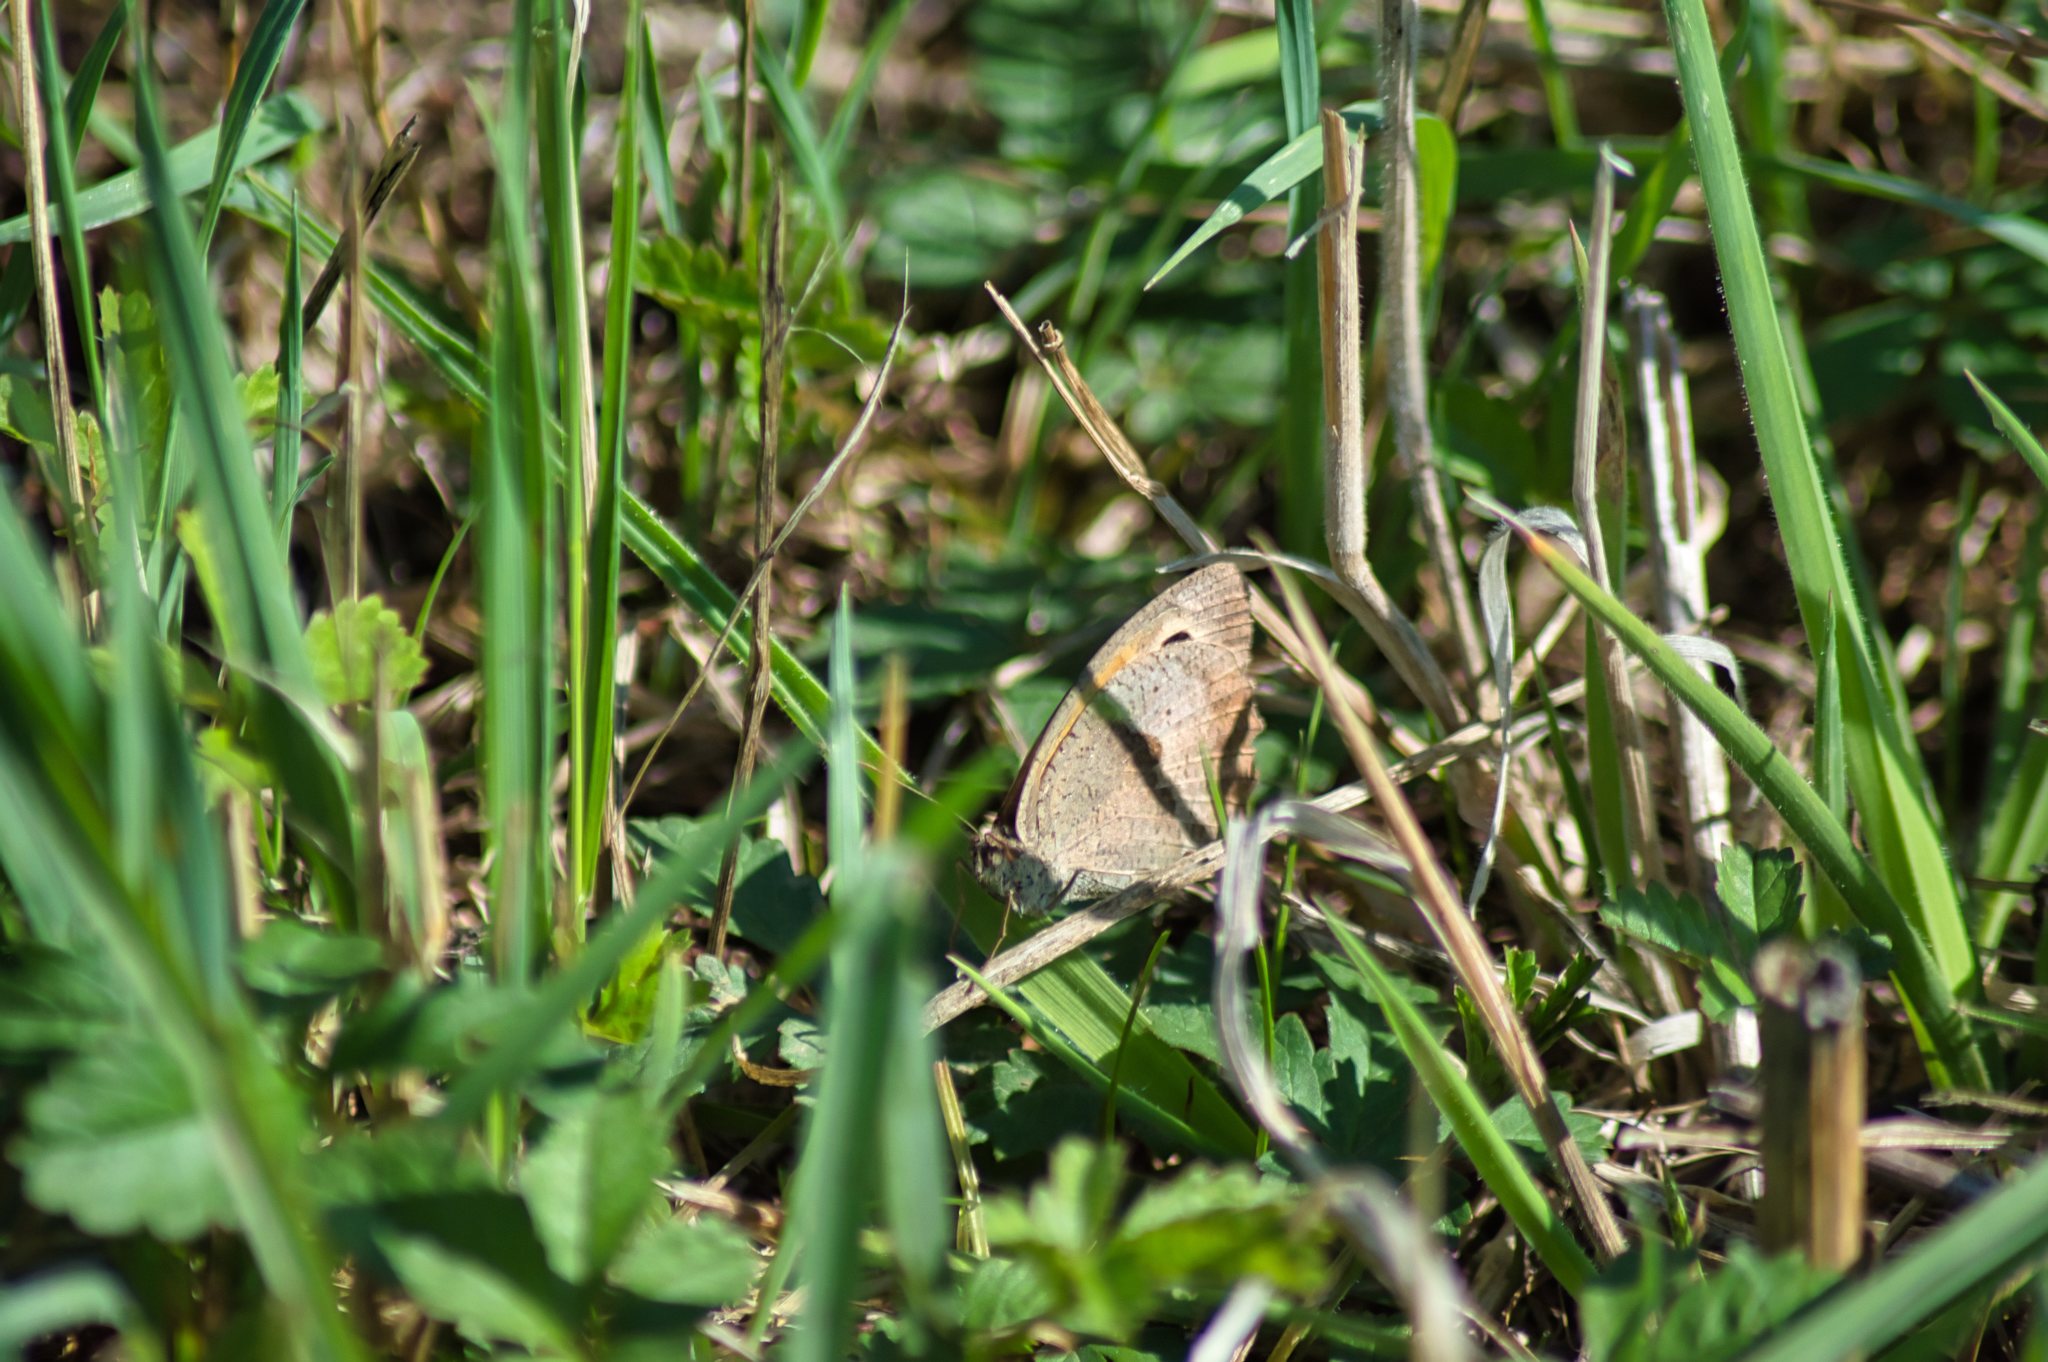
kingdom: Animalia
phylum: Arthropoda
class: Insecta
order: Lepidoptera
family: Nymphalidae
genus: Maniola
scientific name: Maniola jurtina
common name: Meadow brown
